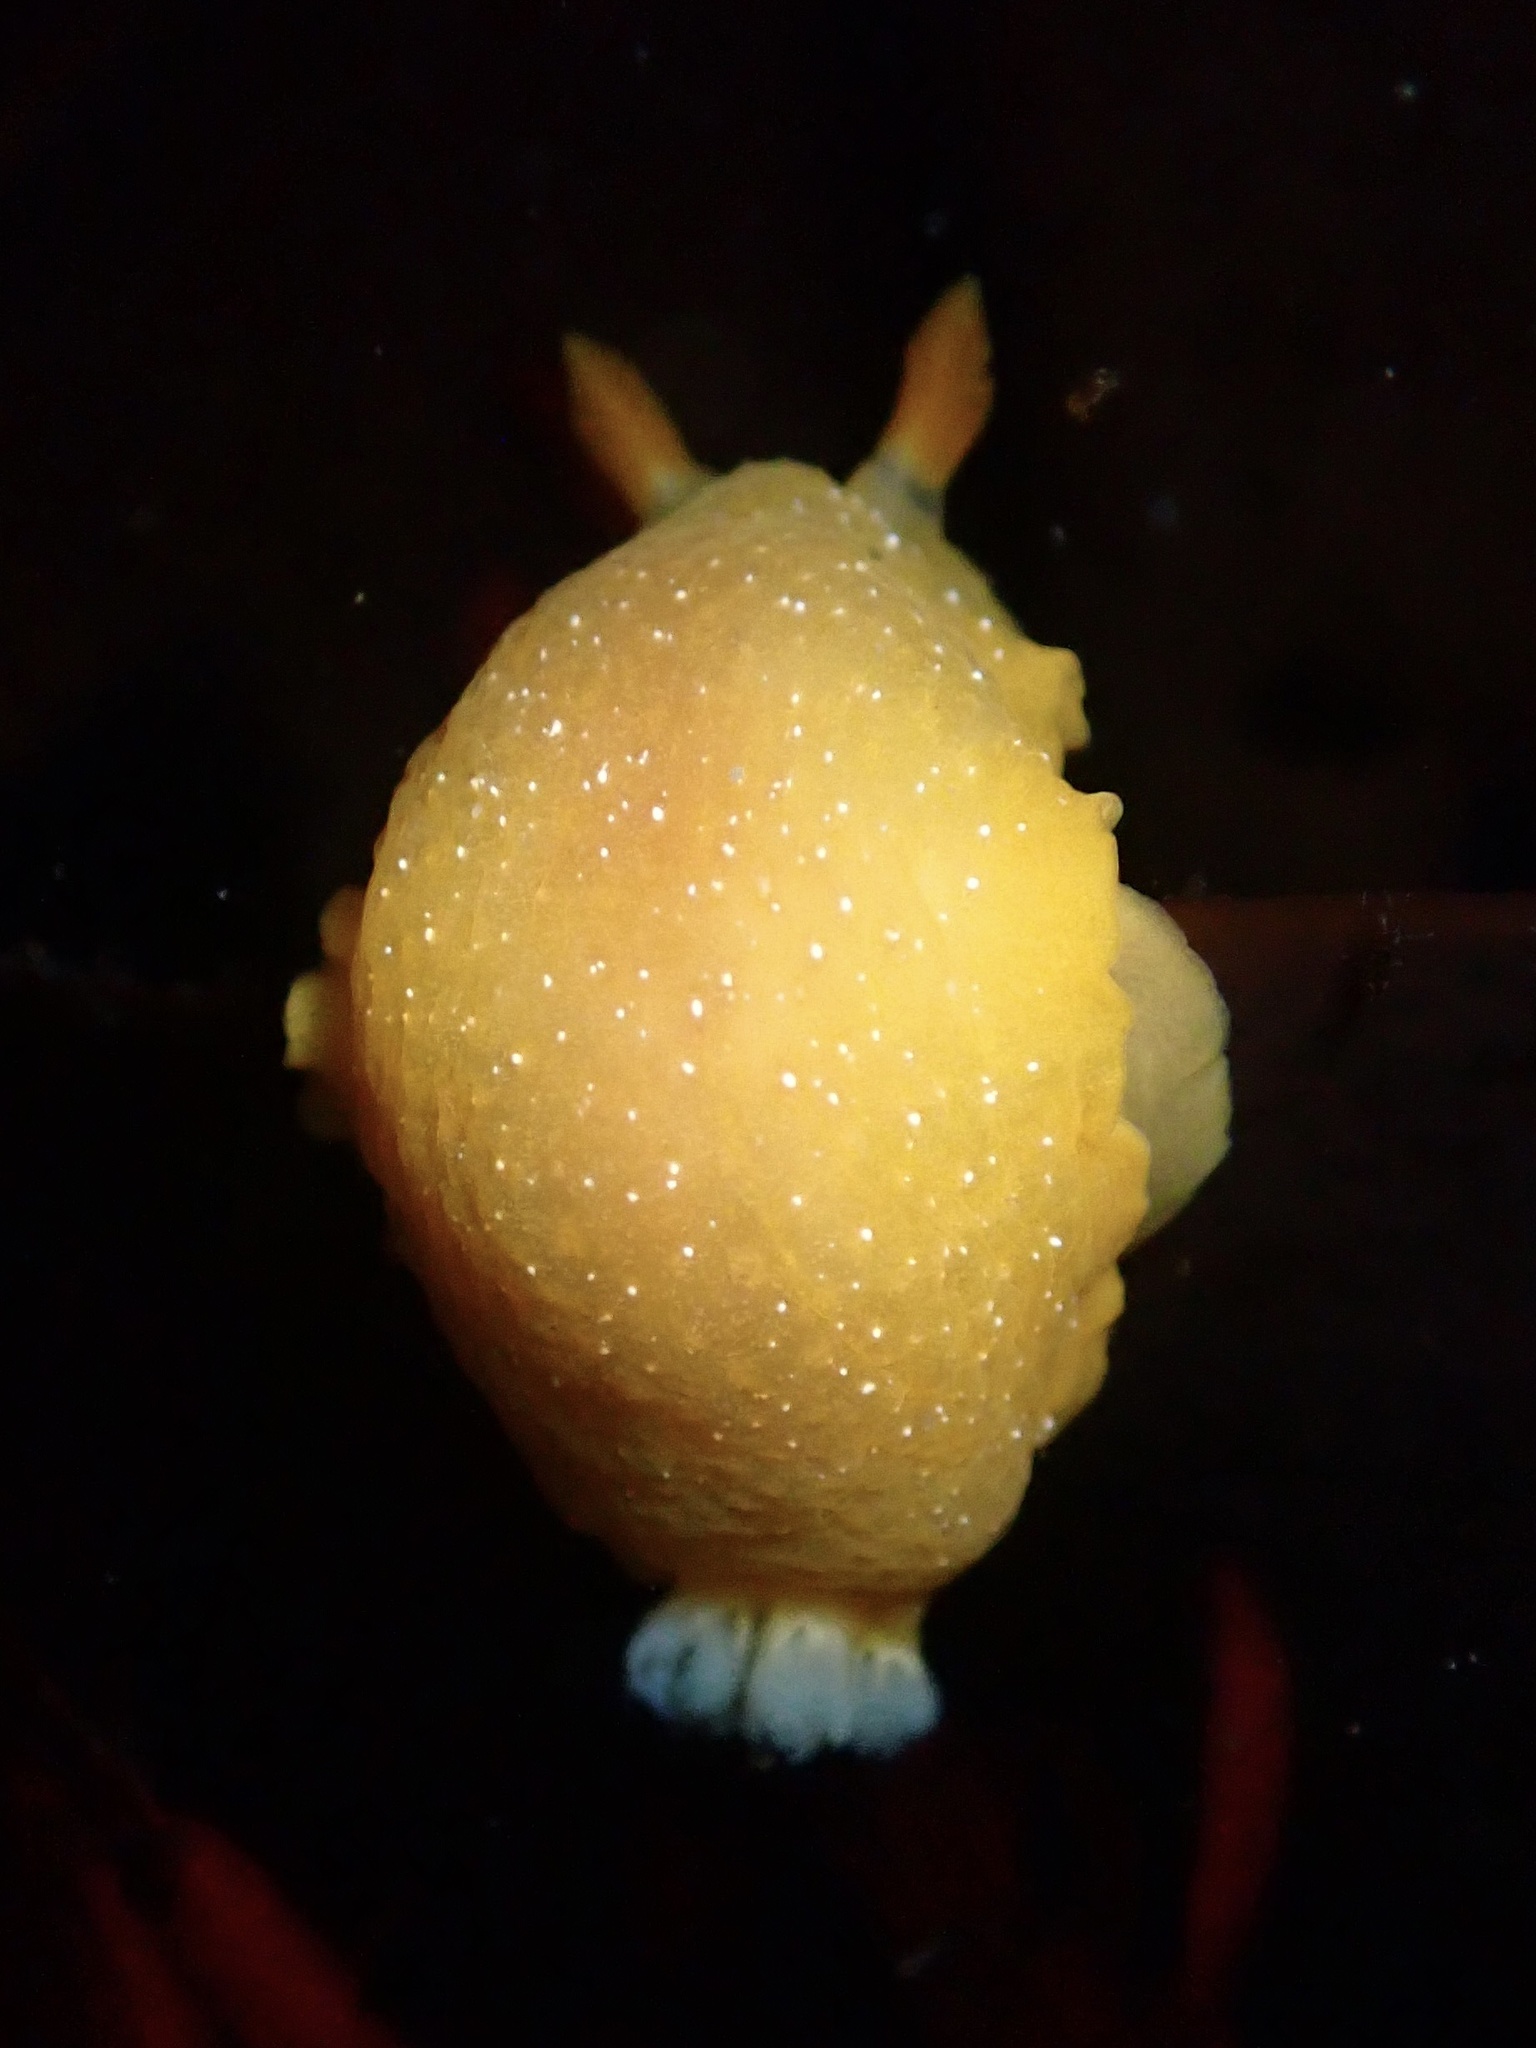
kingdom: Animalia
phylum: Mollusca
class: Gastropoda
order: Nudibranchia
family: Dendrodorididae
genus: Doriopsilla
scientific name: Doriopsilla fulva
